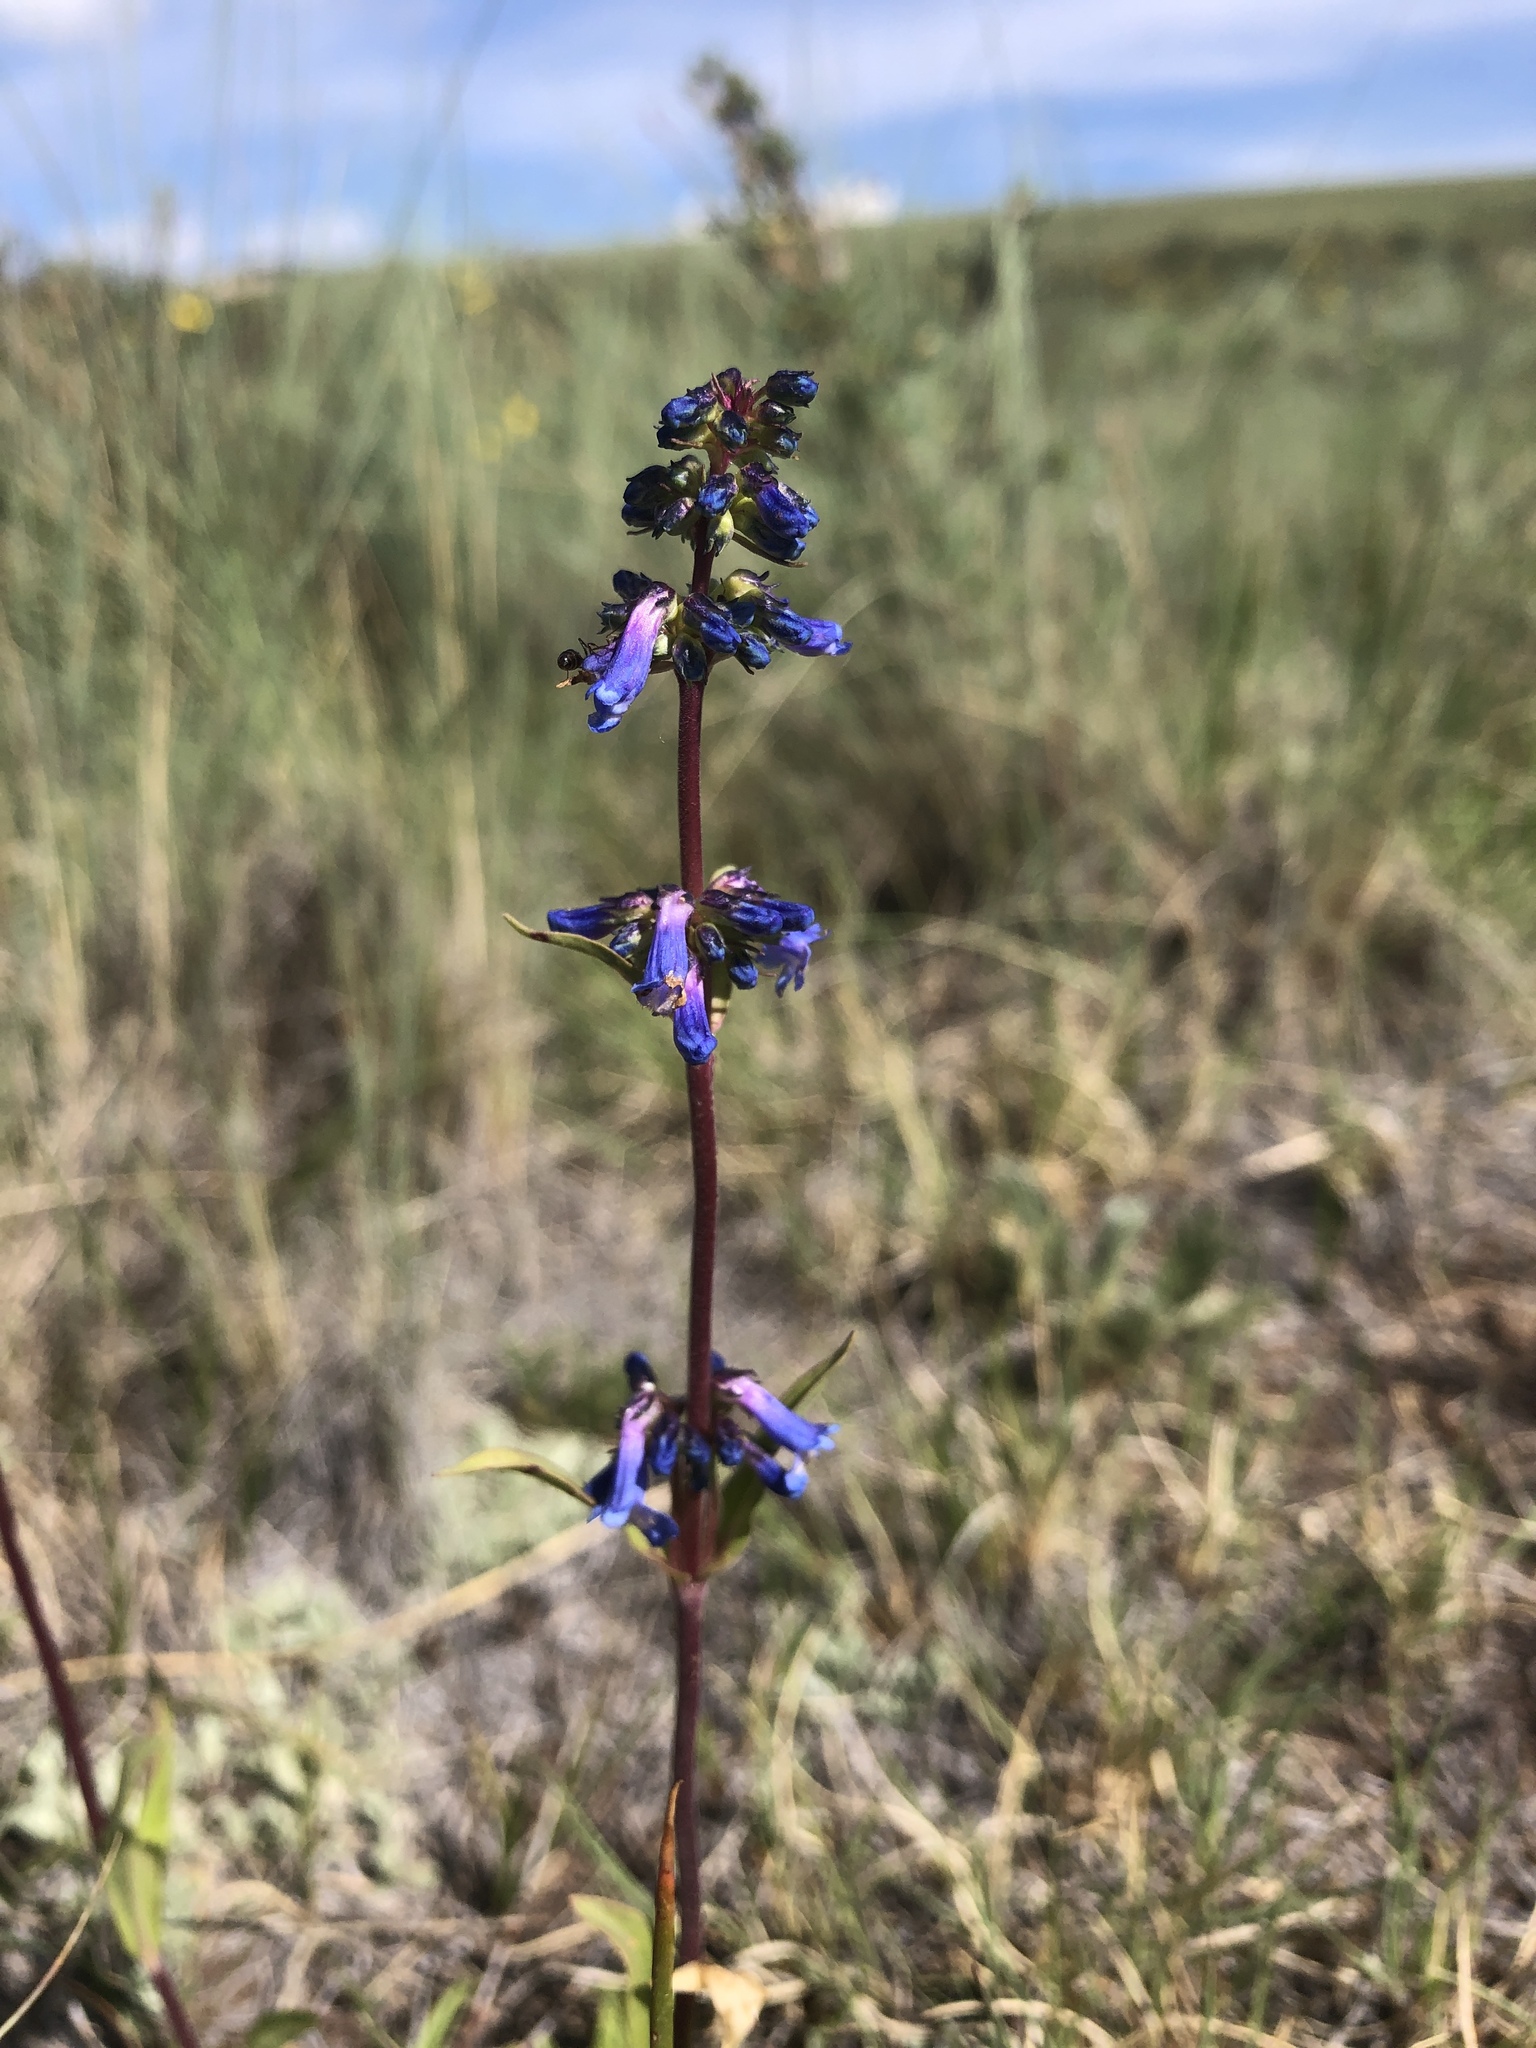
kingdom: Plantae
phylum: Tracheophyta
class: Magnoliopsida
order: Lamiales
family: Plantaginaceae
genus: Penstemon
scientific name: Penstemon procerus
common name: Small-flower penstemon
